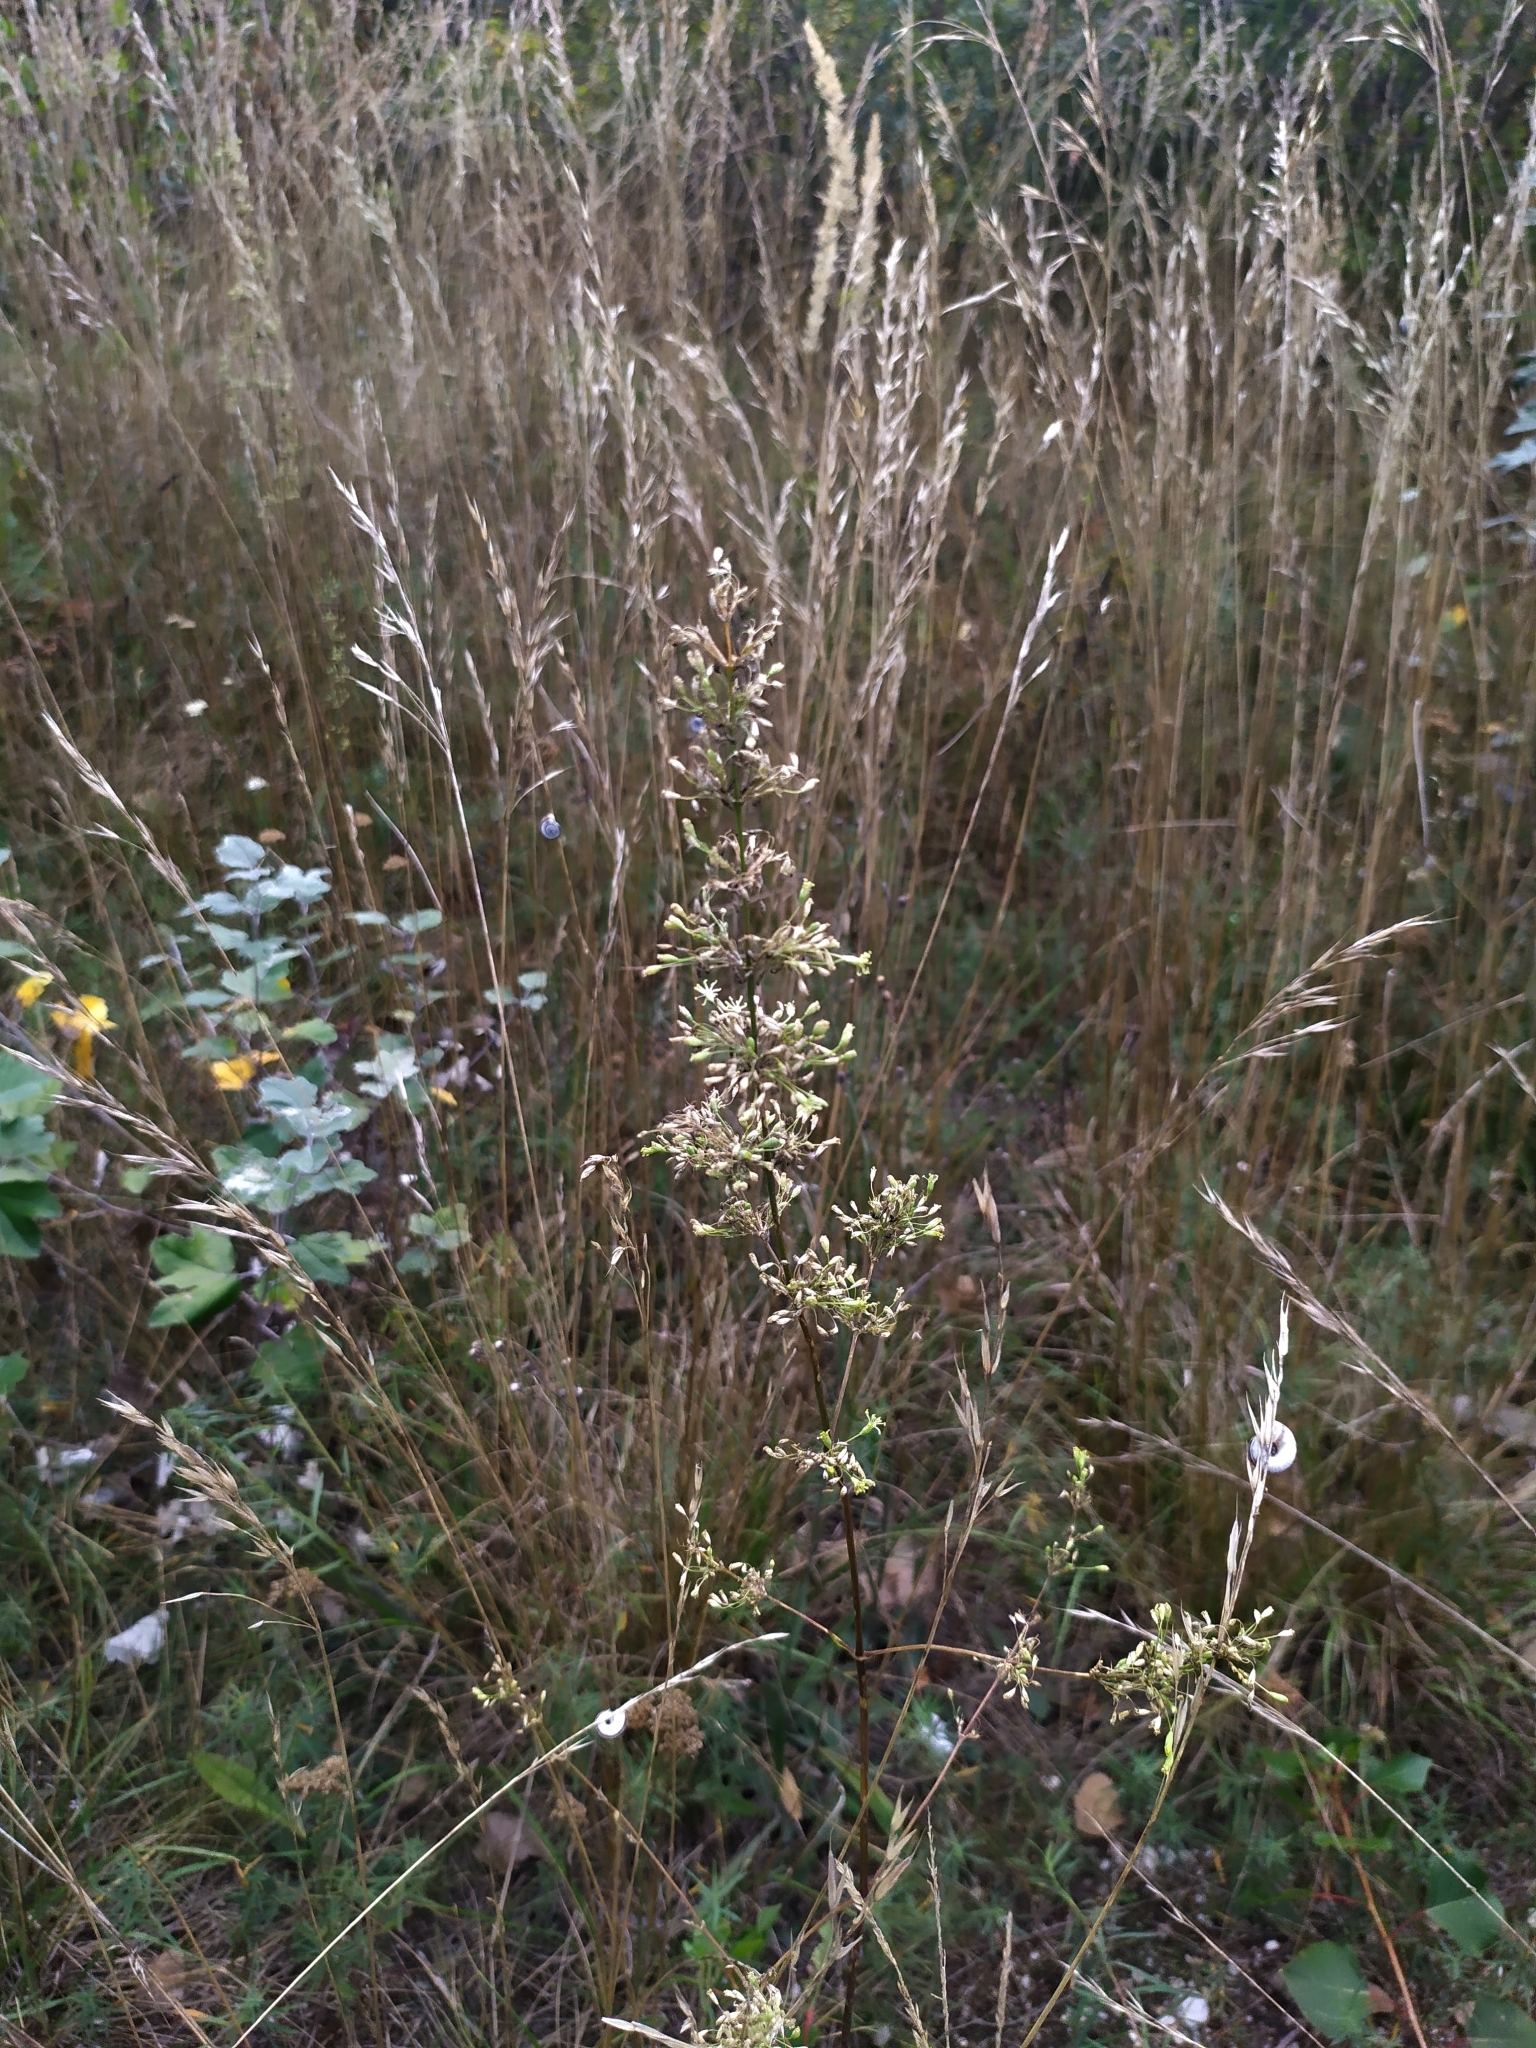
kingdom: Plantae
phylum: Tracheophyta
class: Magnoliopsida
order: Caryophyllales
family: Caryophyllaceae
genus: Silene
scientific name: Silene otites
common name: Spanish catchfly
